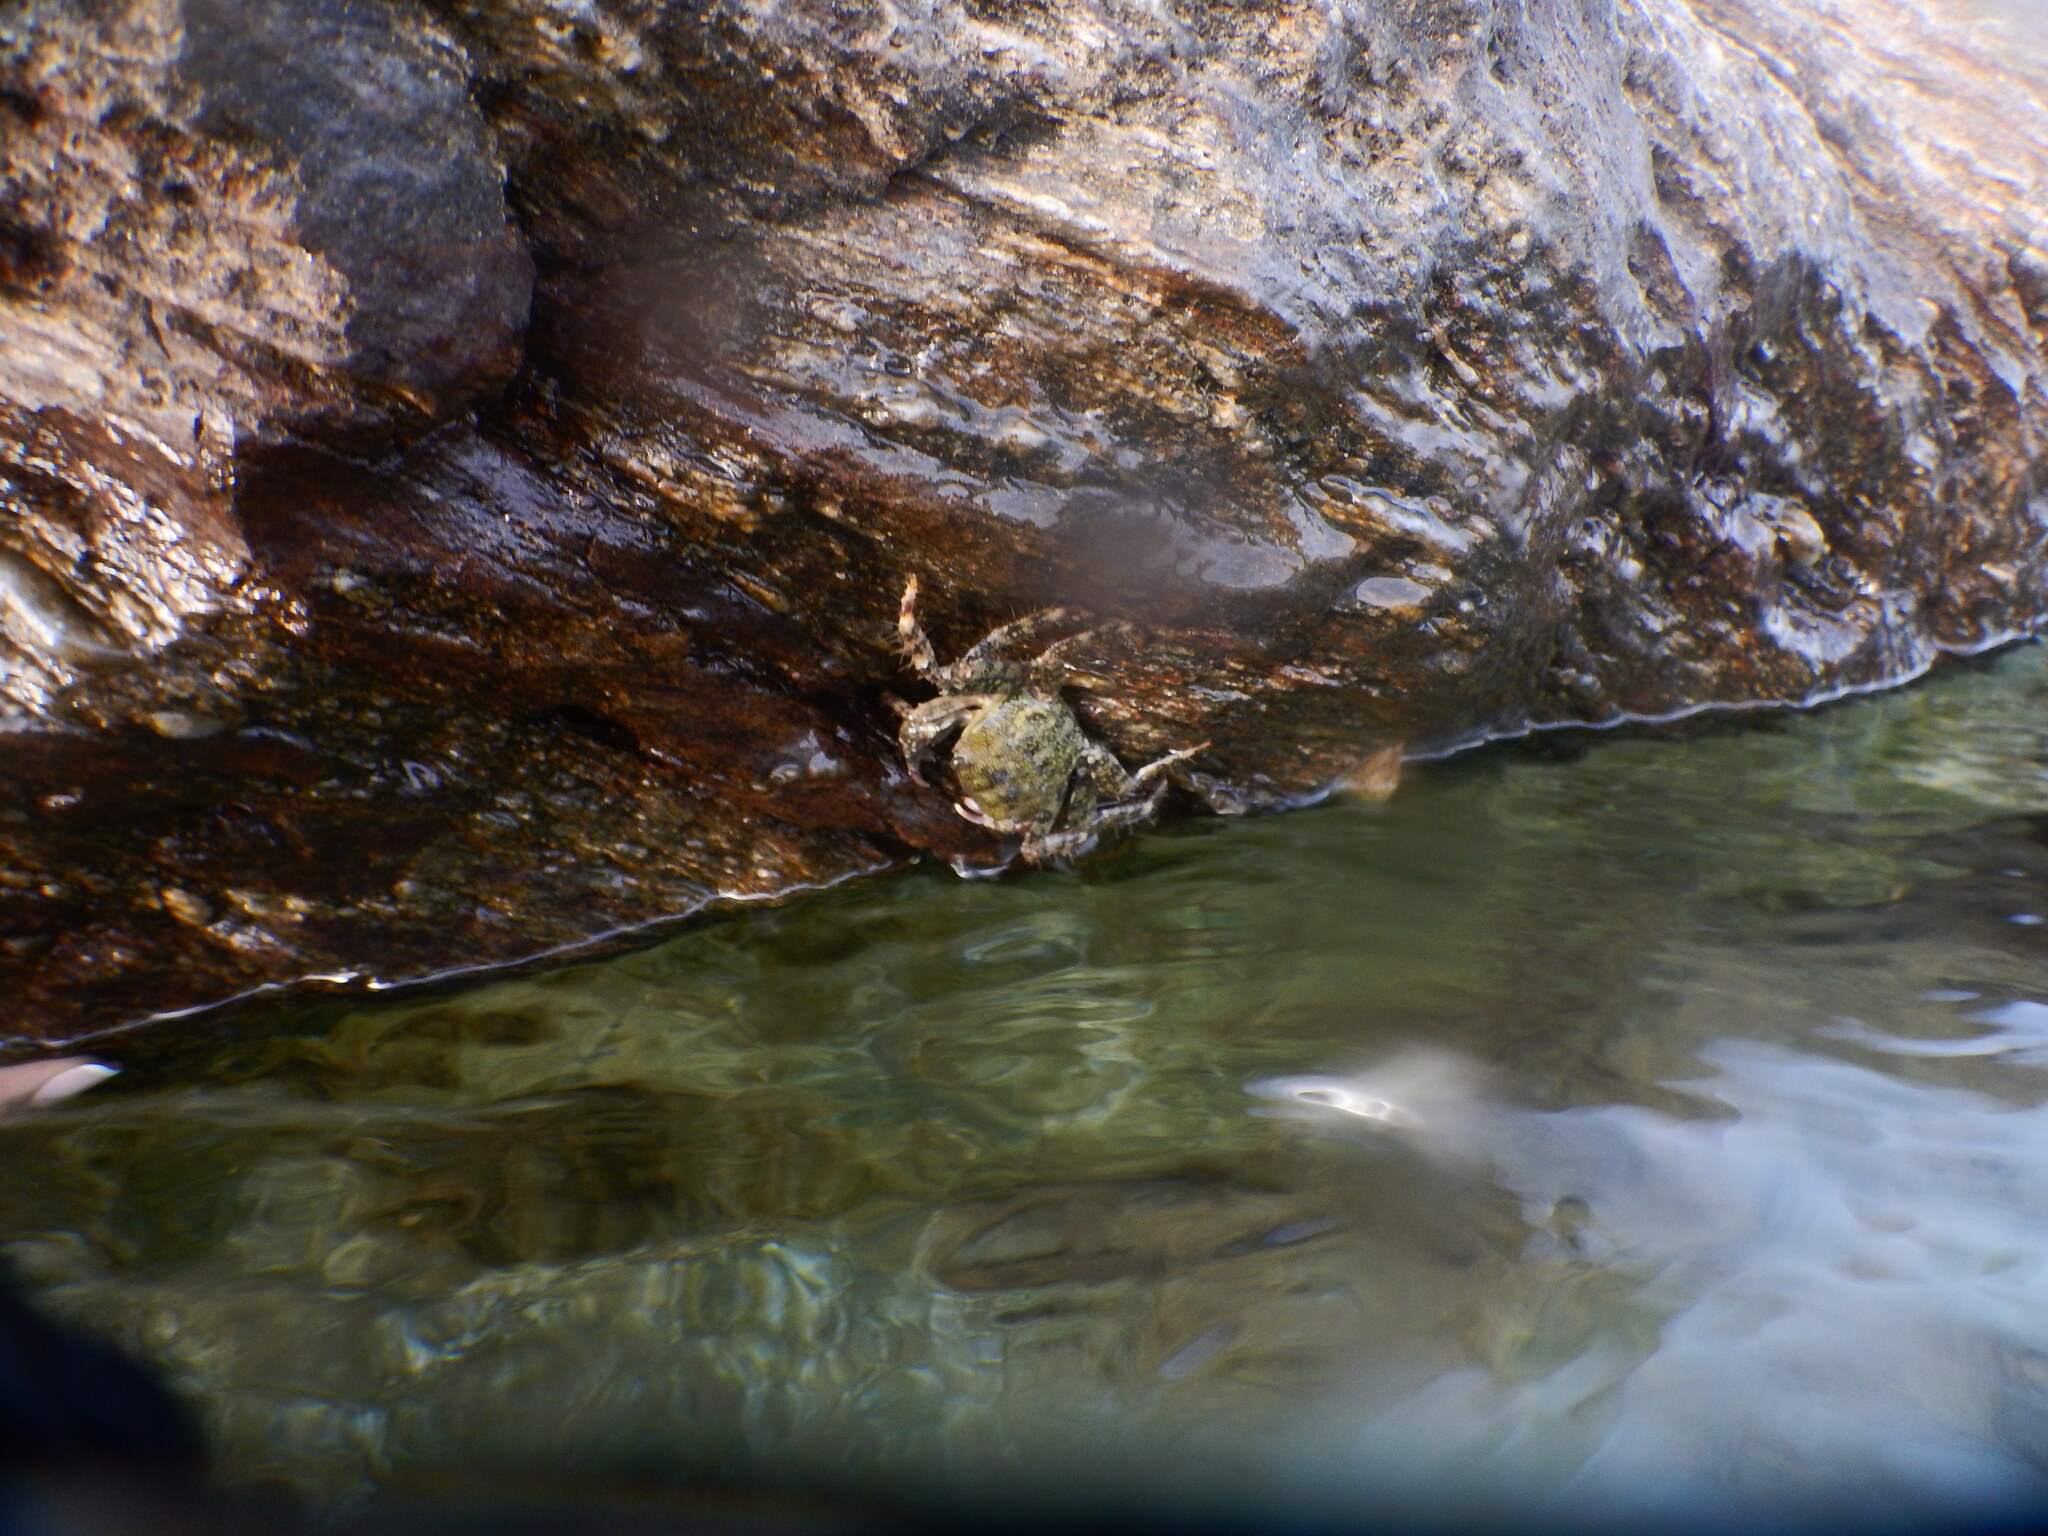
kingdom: Animalia
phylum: Arthropoda
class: Malacostraca
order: Decapoda
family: Grapsidae
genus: Pachygrapsus
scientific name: Pachygrapsus marmoratus
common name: Marbled rock crab
